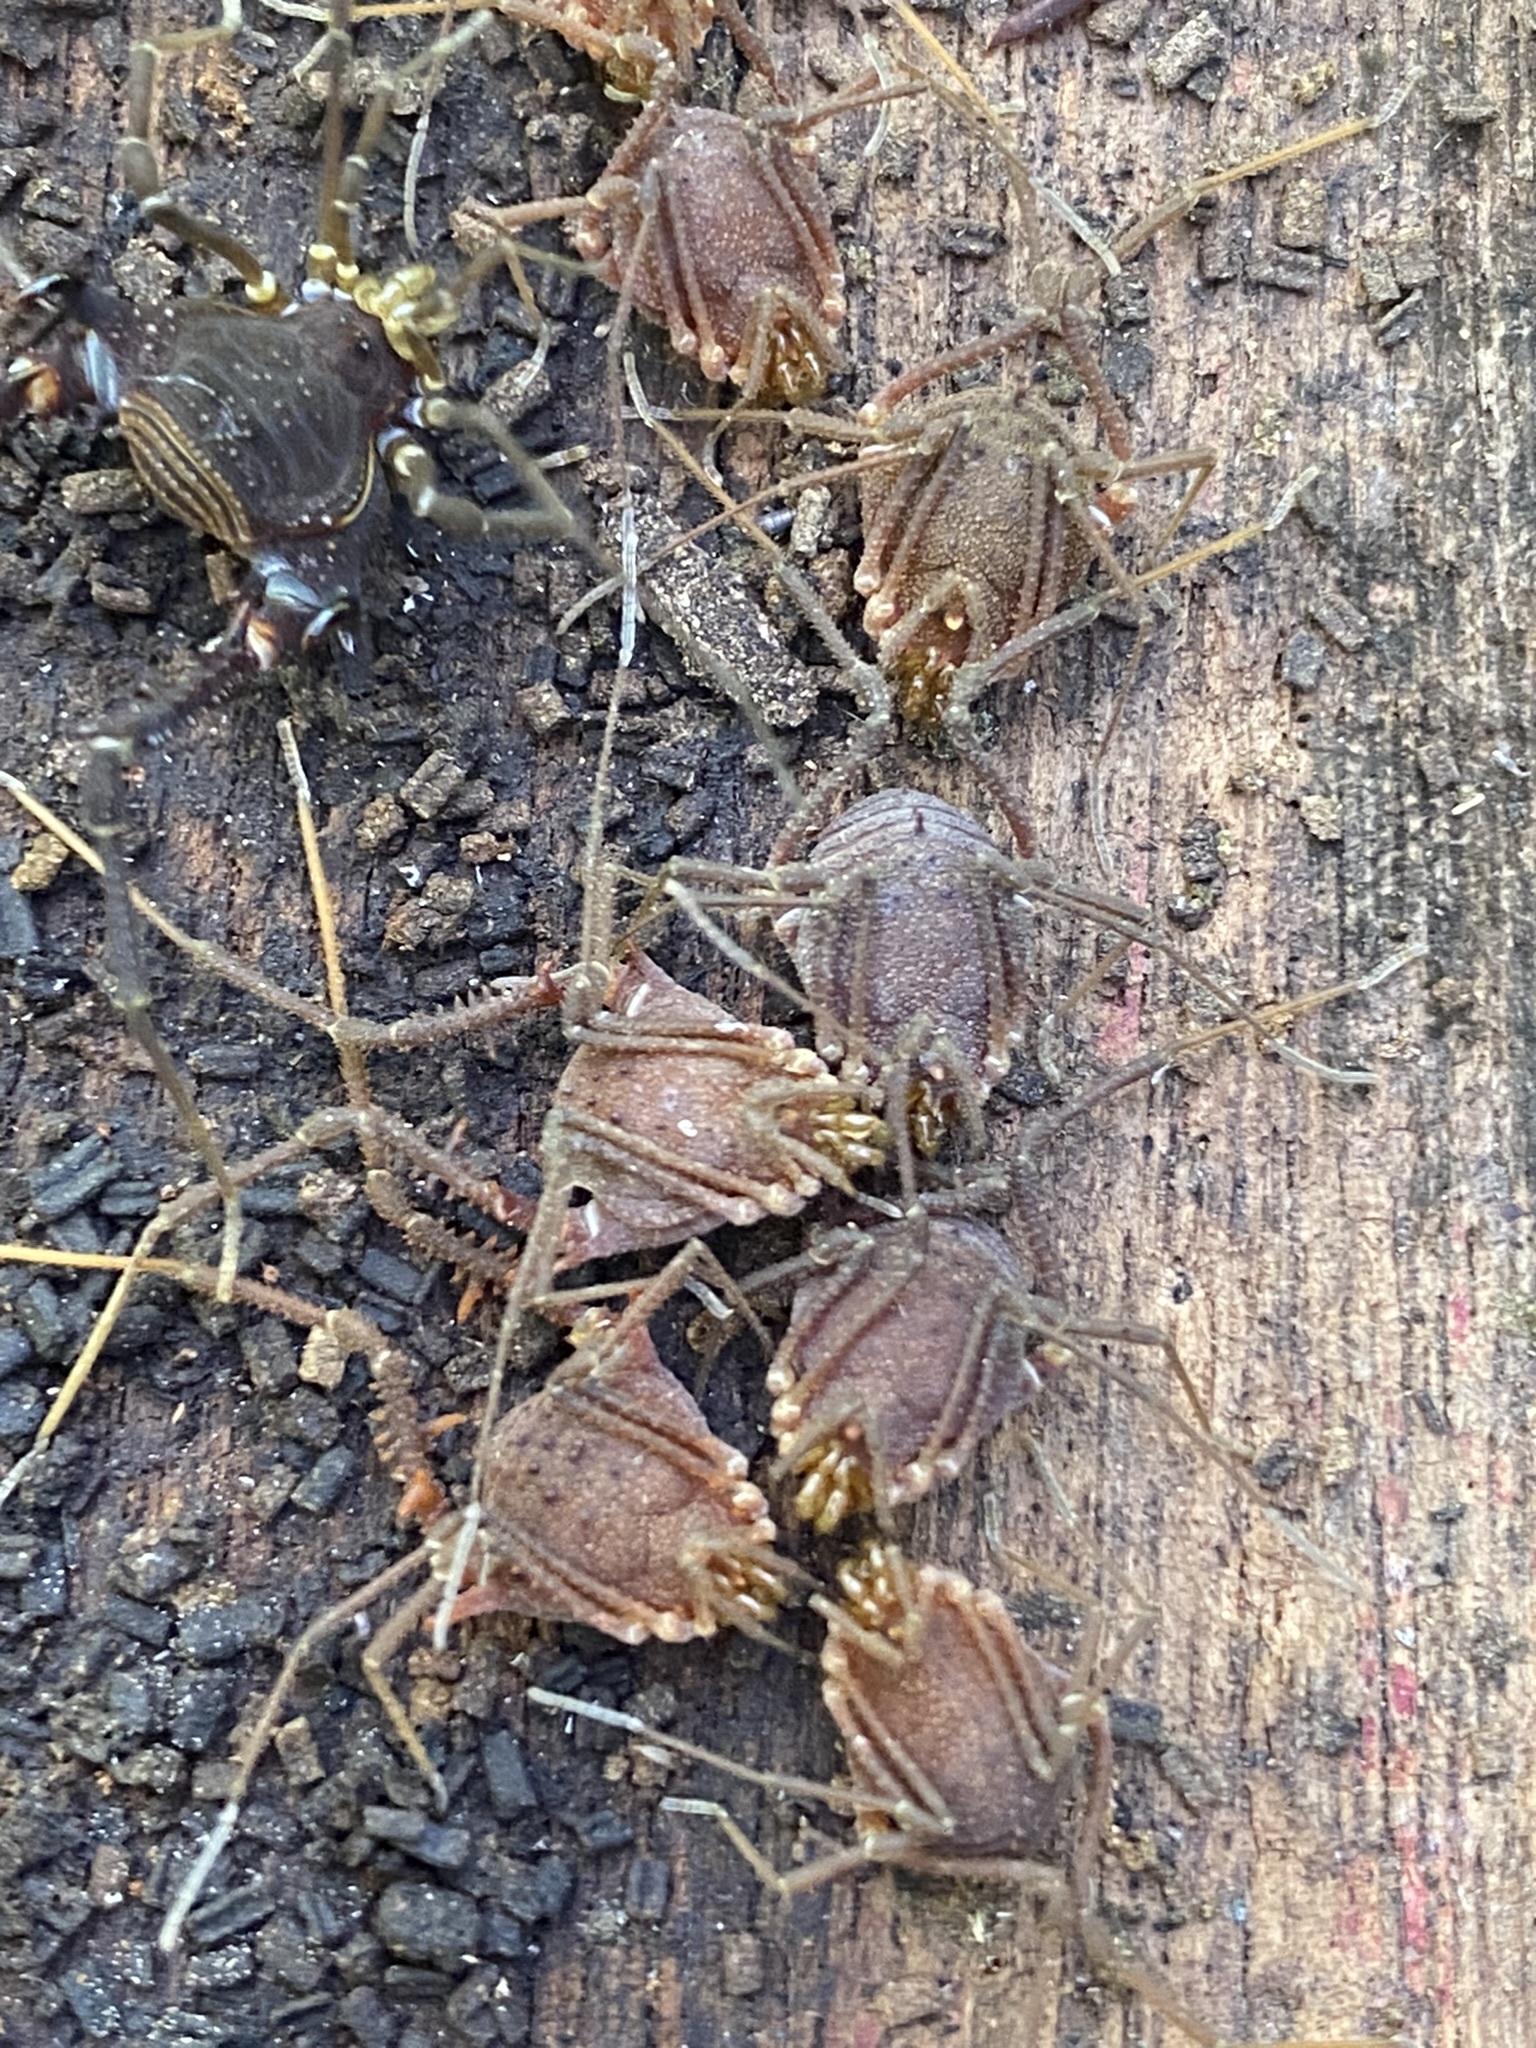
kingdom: Animalia
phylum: Arthropoda
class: Arachnida
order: Opiliones
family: Gonyleptidae
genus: Hernandaria
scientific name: Hernandaria scabricula
